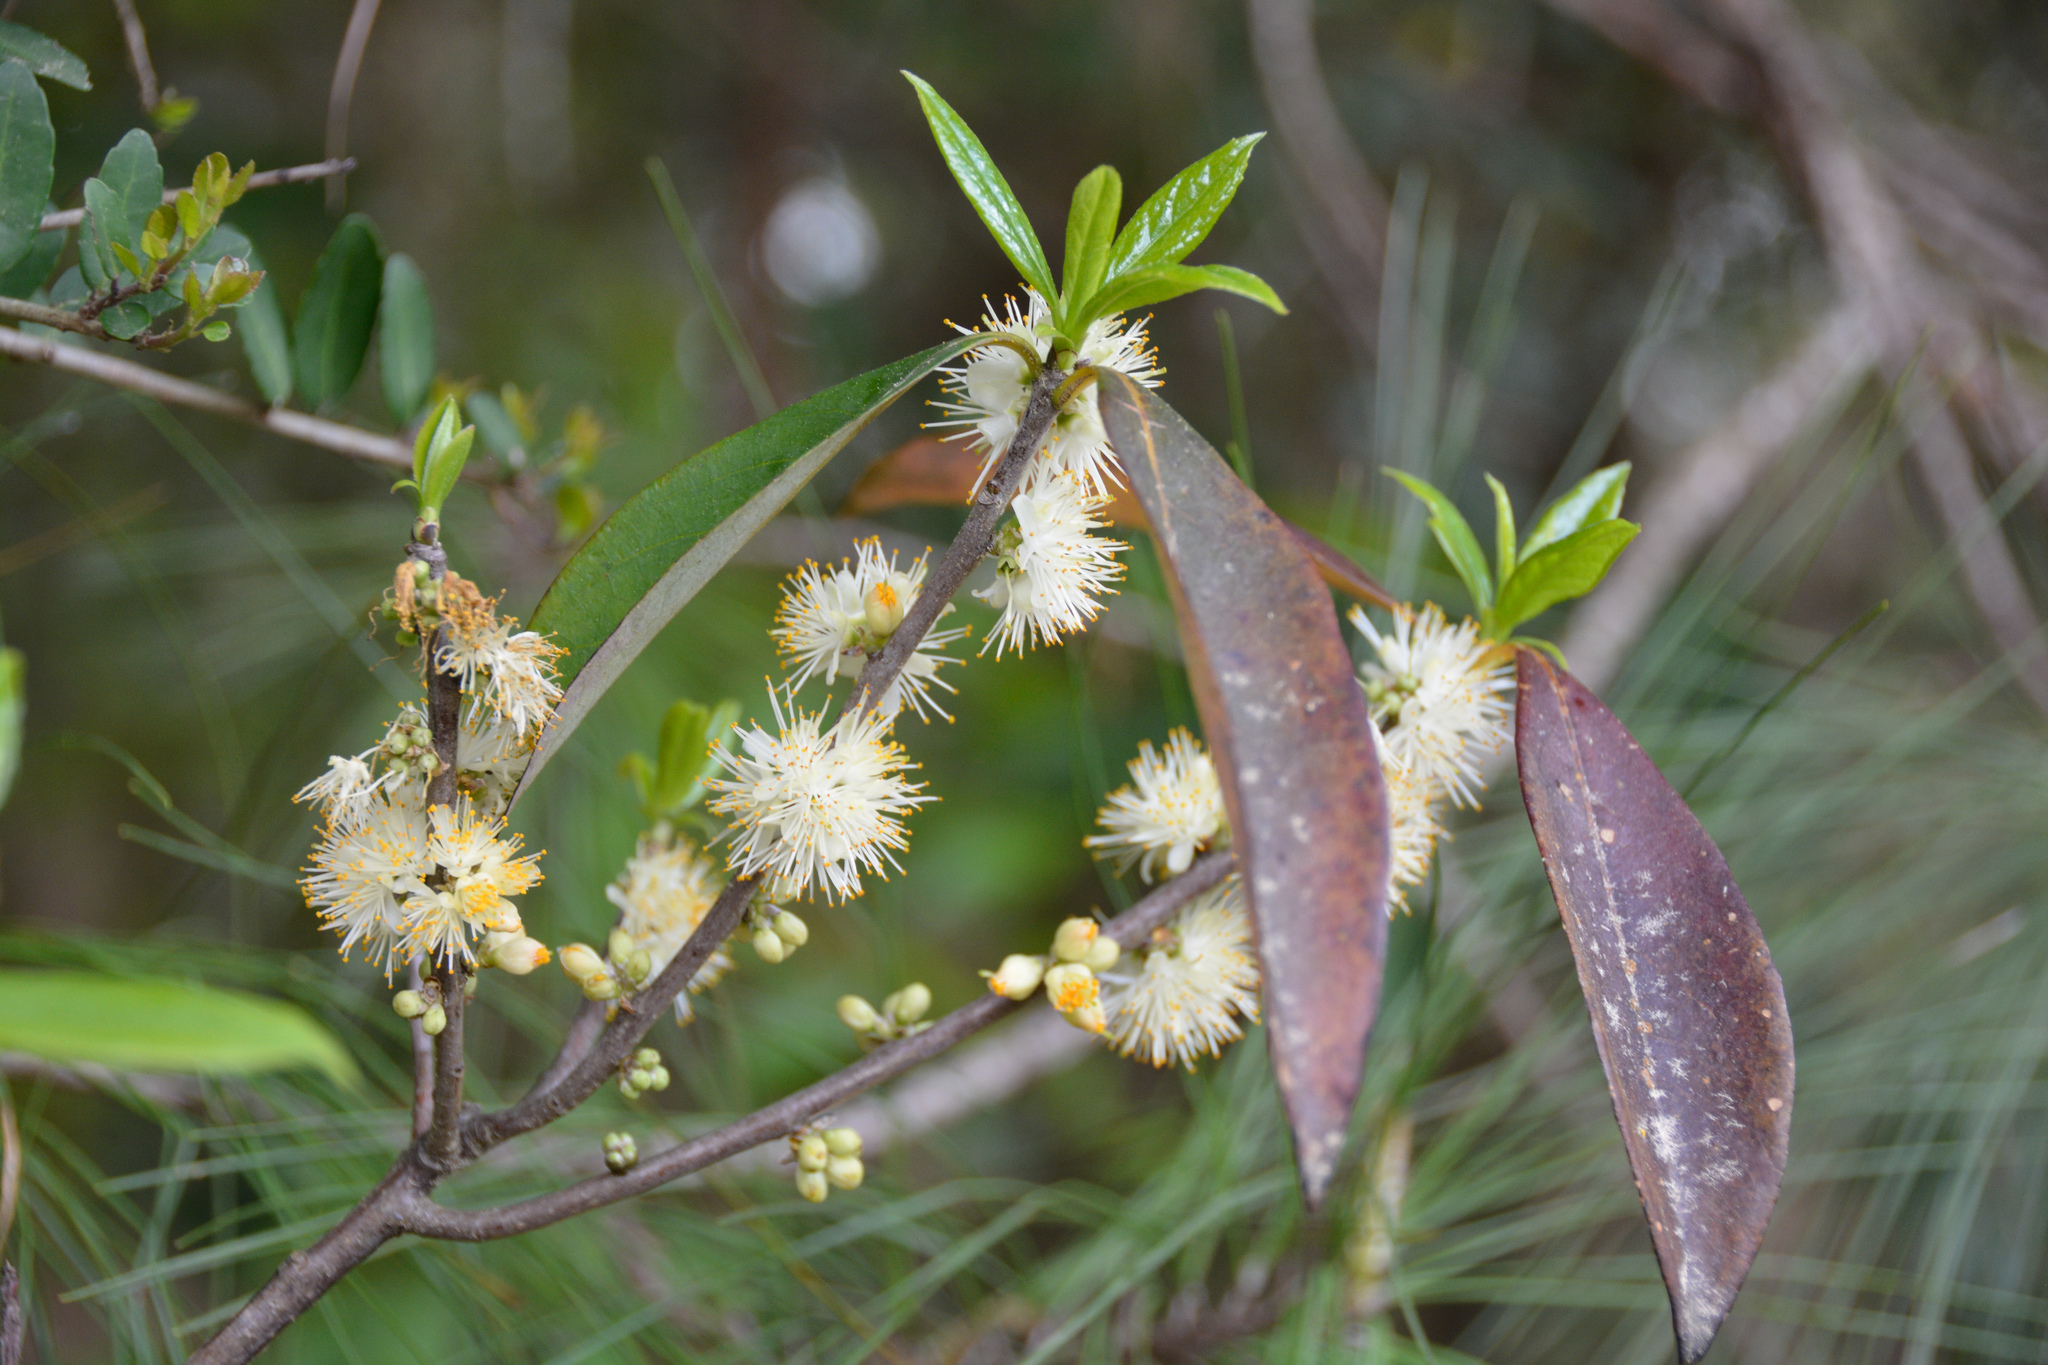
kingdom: Plantae
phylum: Tracheophyta
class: Magnoliopsida
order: Ericales
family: Symplocaceae
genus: Symplocos
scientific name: Symplocos tinctoria
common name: Horse-sugar
